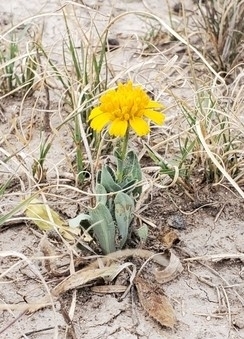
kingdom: Plantae
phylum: Tracheophyta
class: Magnoliopsida
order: Asterales
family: Asteraceae
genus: Amblyolepis
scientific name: Amblyolepis setigera
